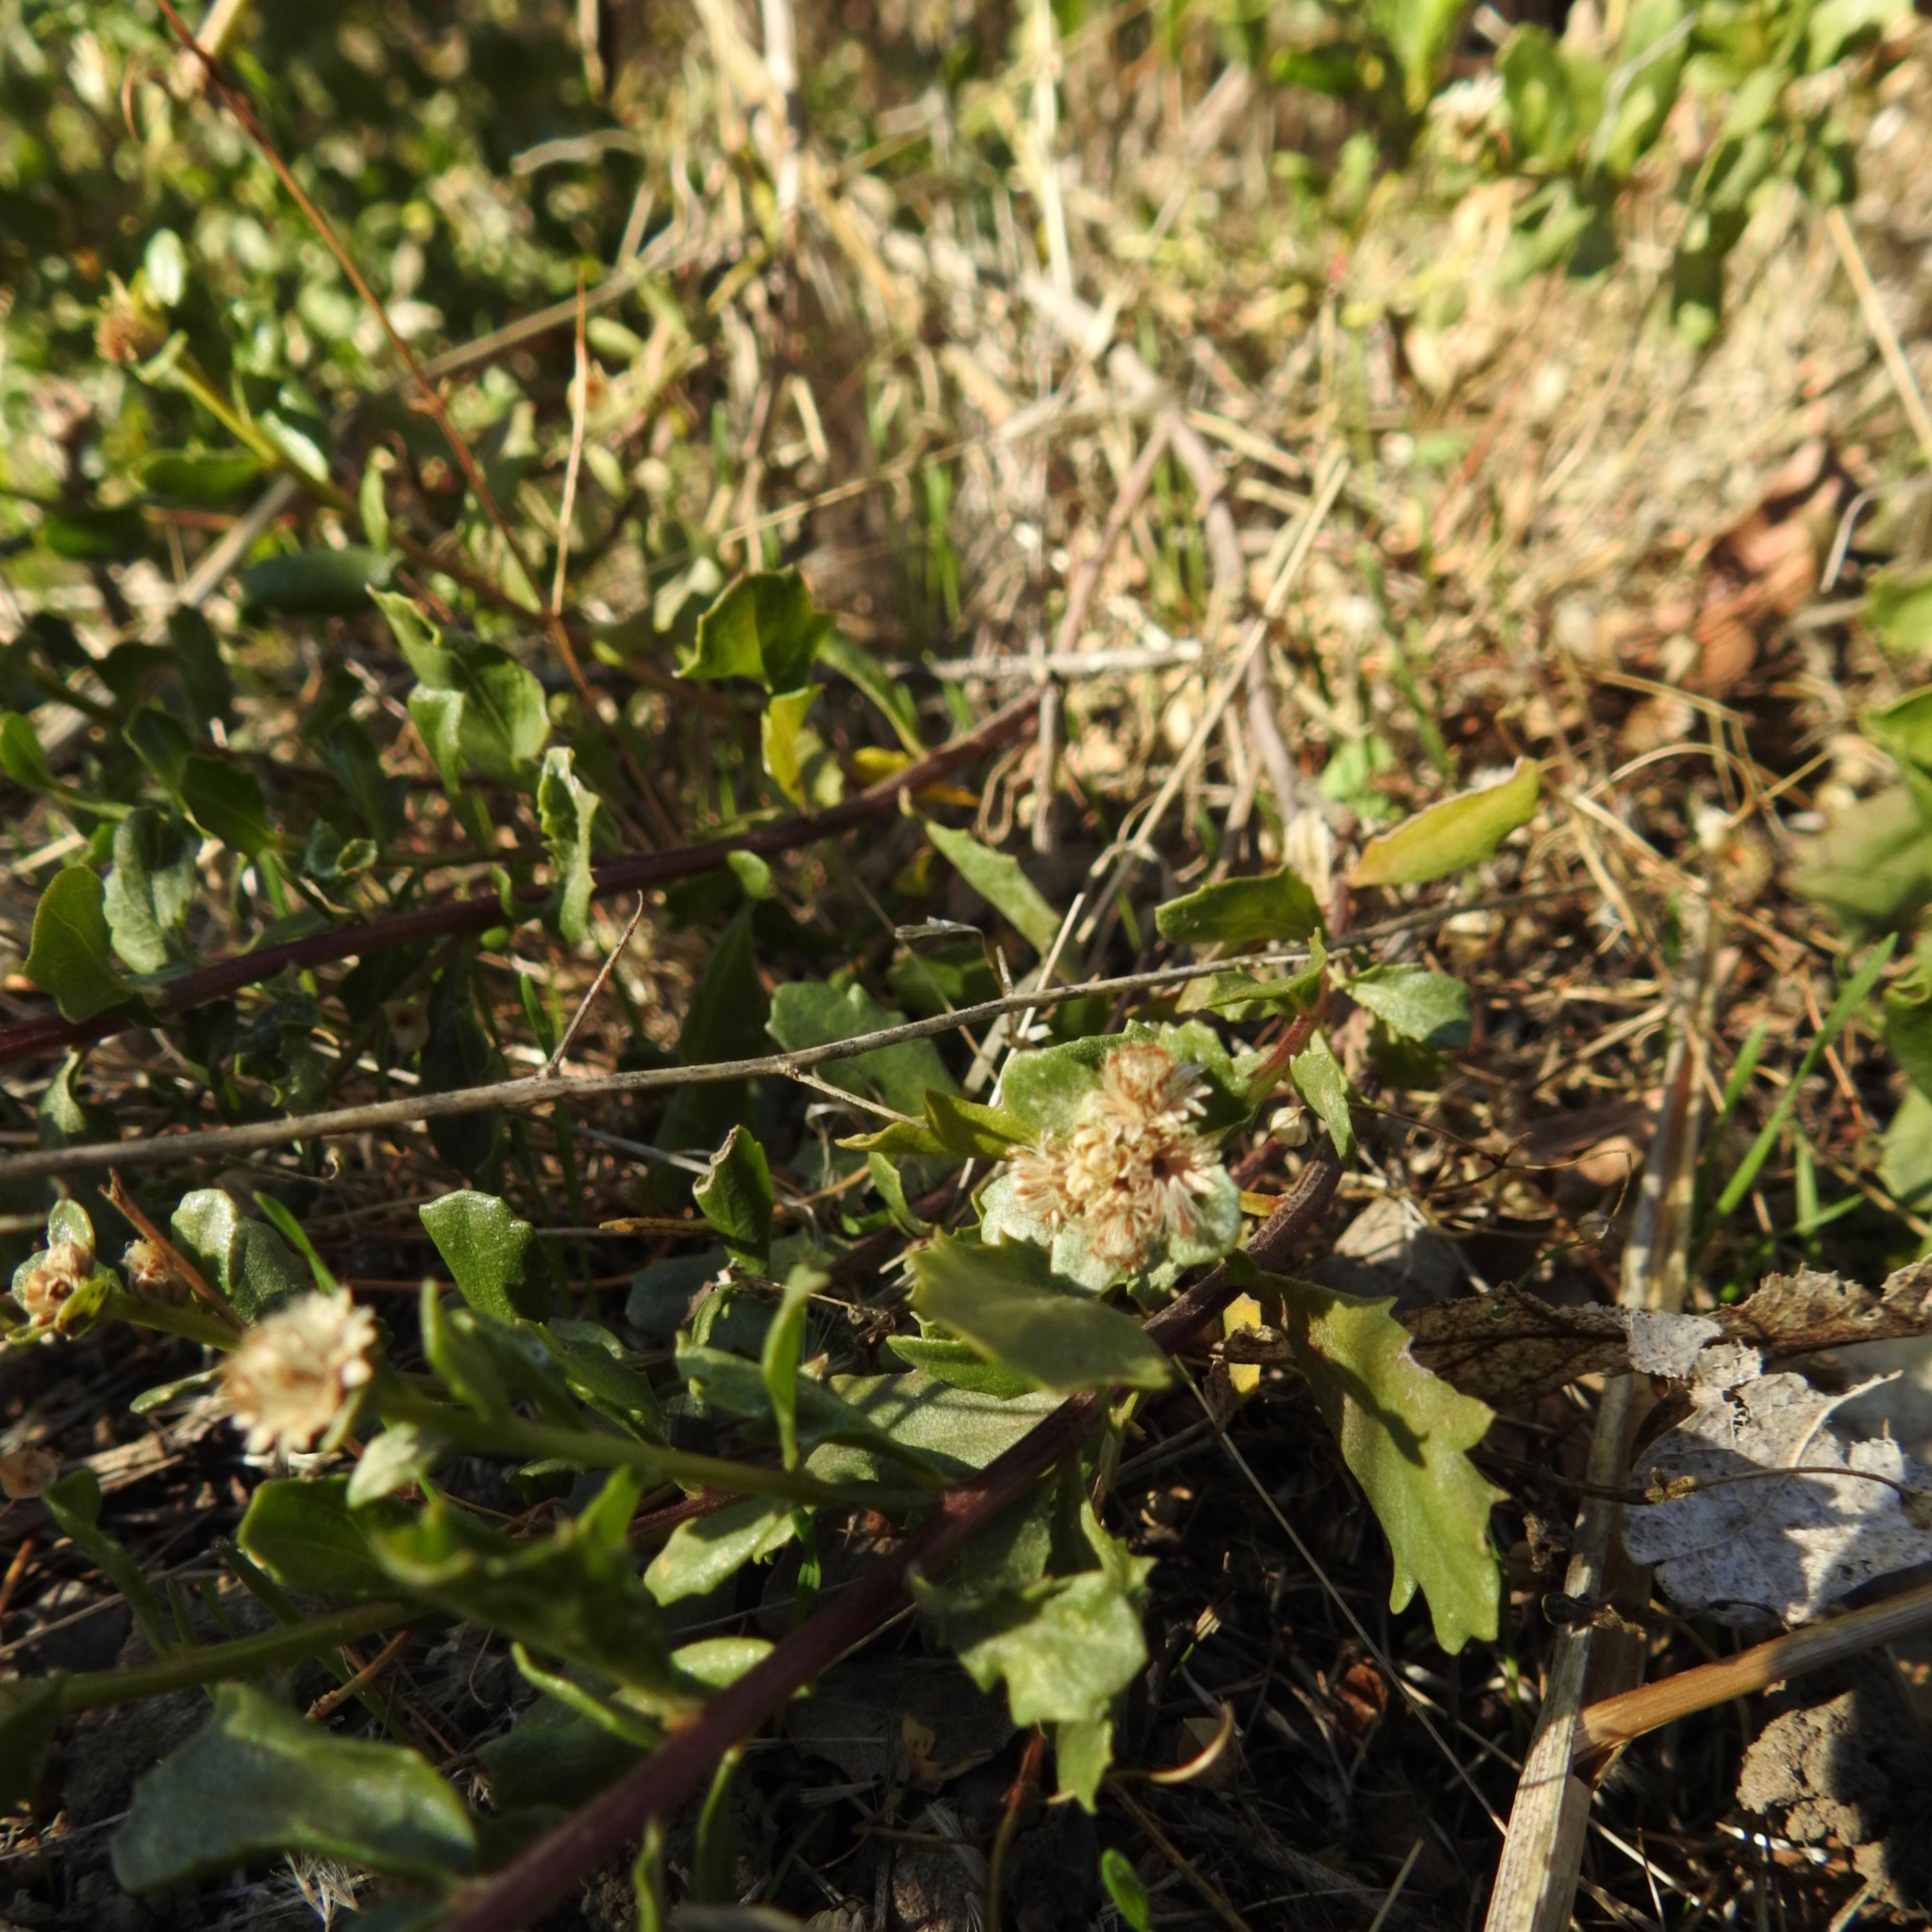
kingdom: Plantae
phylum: Tracheophyta
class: Magnoliopsida
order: Asterales
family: Asteraceae
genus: Baccharis
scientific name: Baccharis pilularis
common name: Coyotebrush
